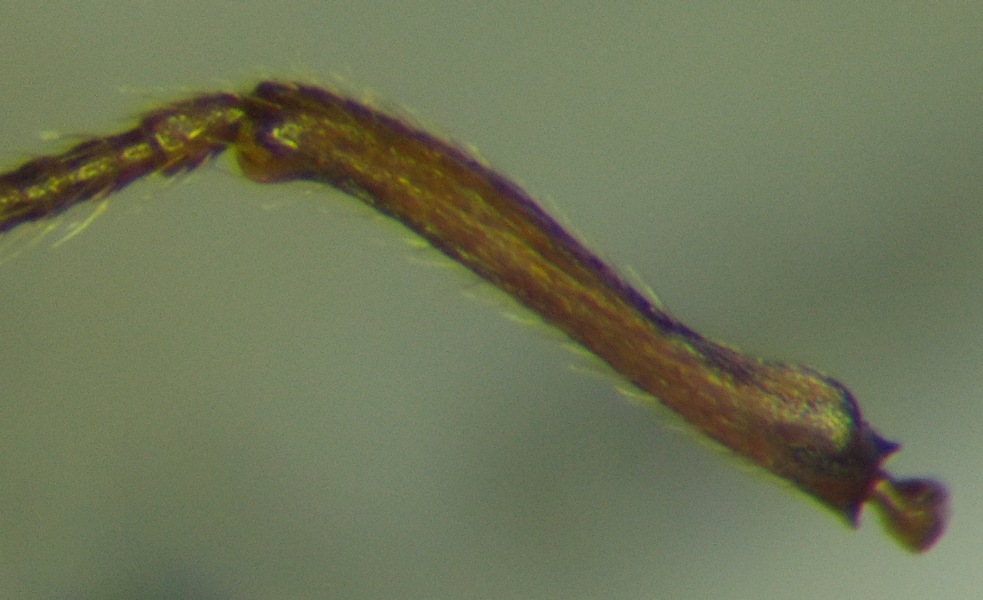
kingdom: Animalia
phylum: Arthropoda
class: Insecta
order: Hymenoptera
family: Formicidae
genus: Myrmica
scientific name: Myrmica scabrinodis
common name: Ant
